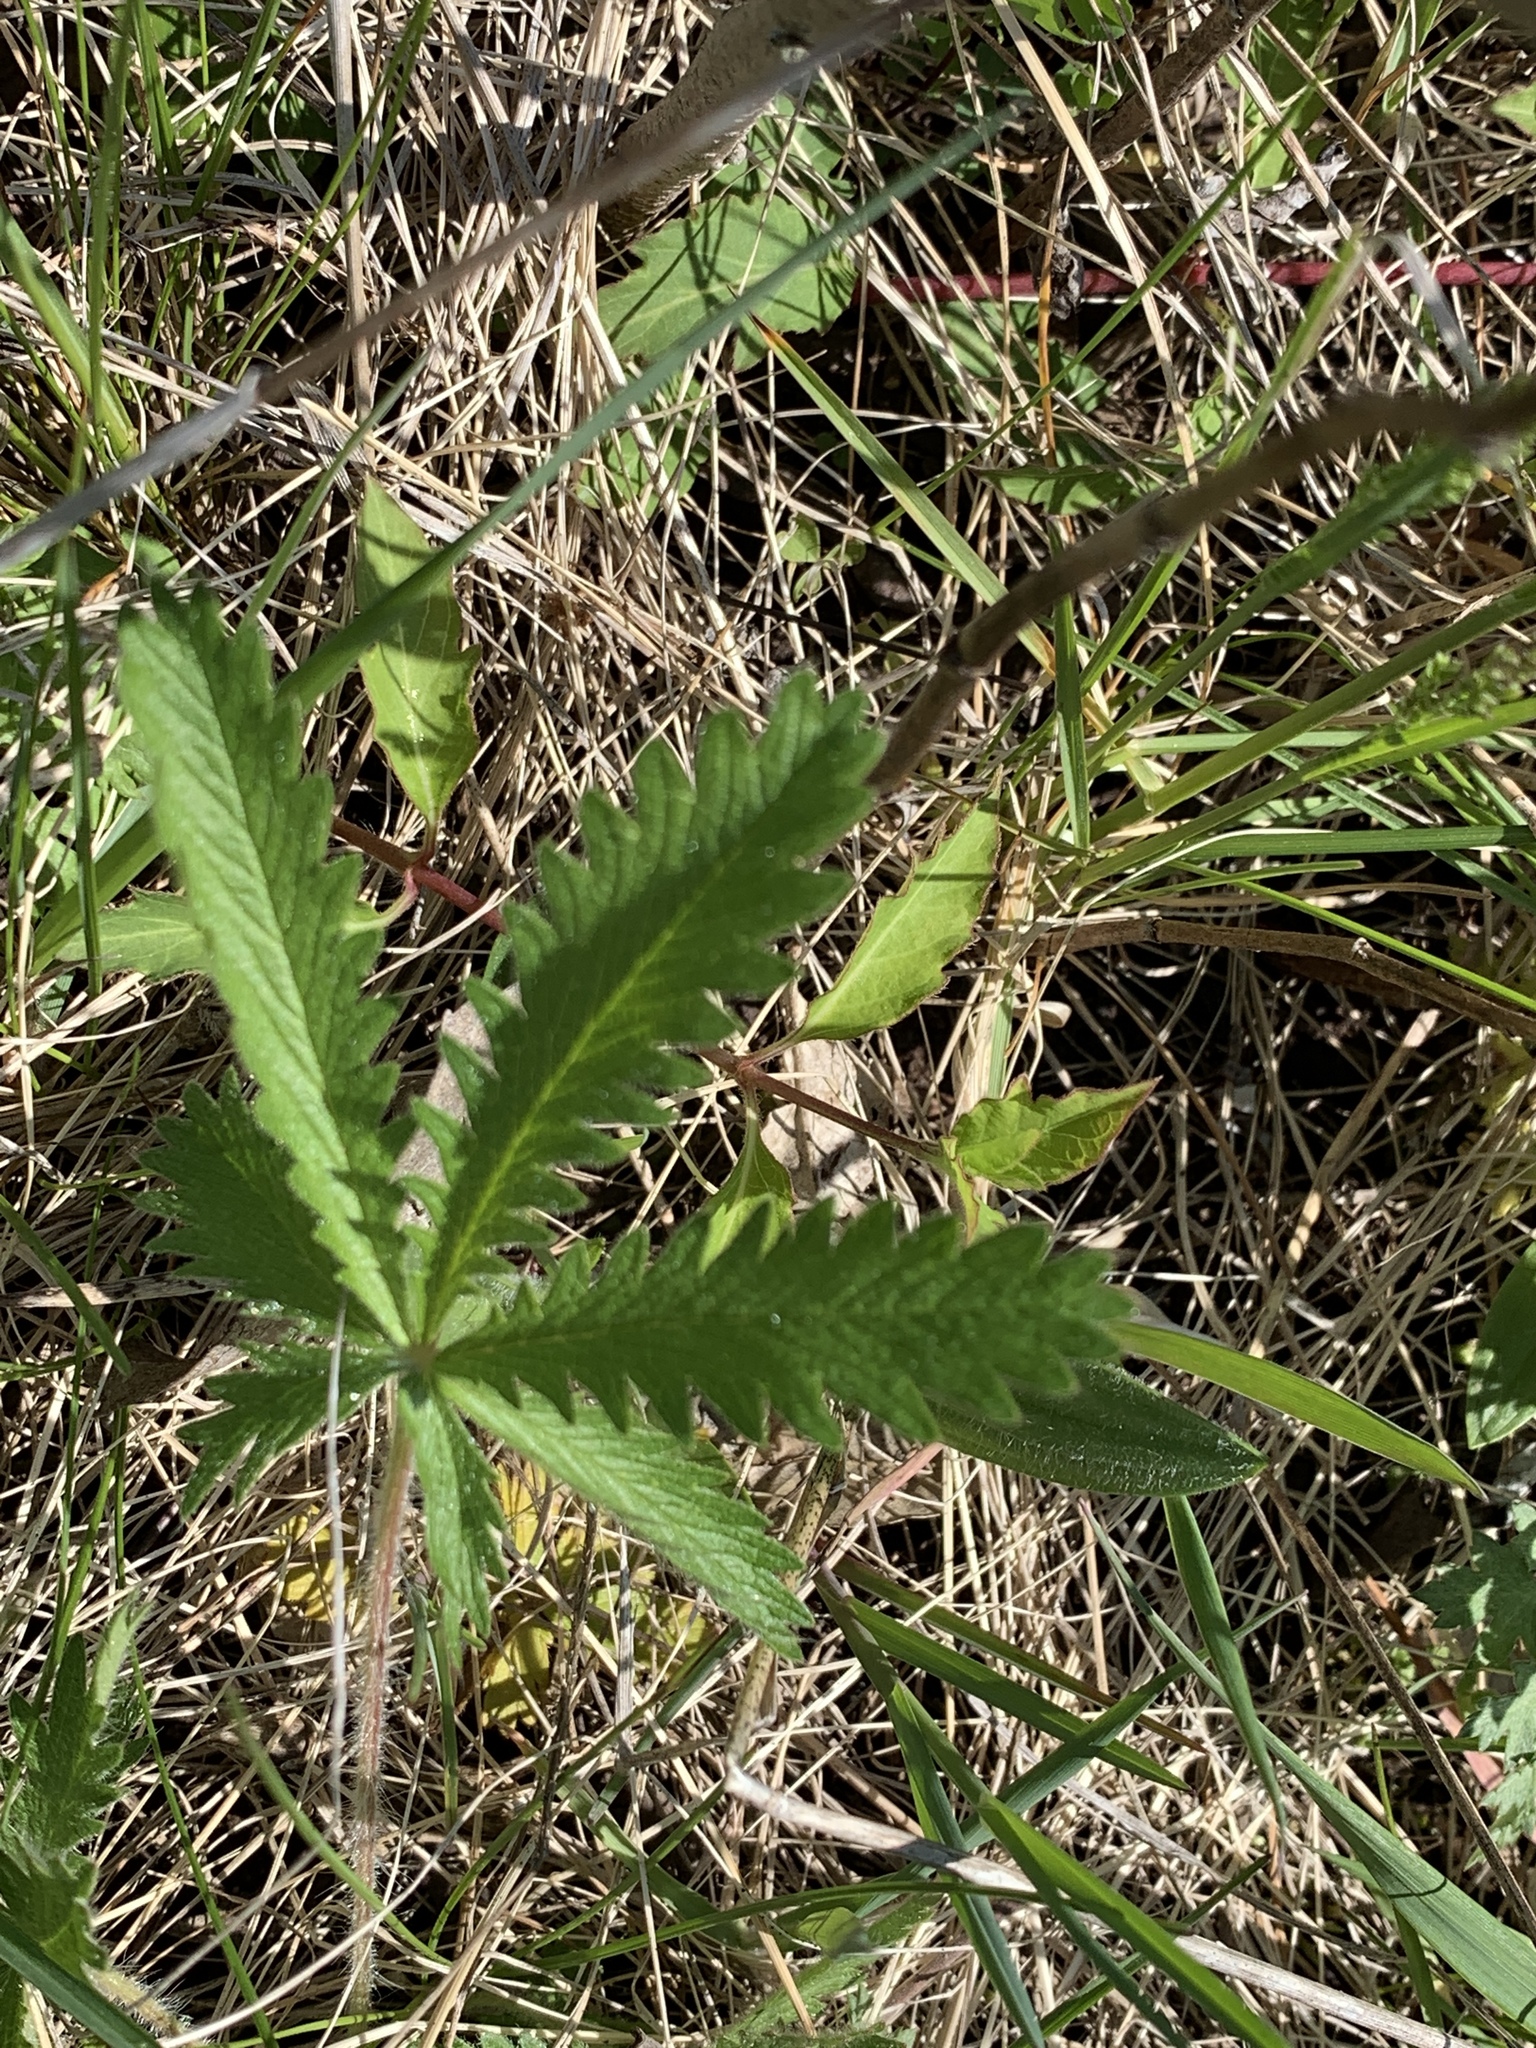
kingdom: Plantae
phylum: Tracheophyta
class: Magnoliopsida
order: Rosales
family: Rosaceae
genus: Potentilla
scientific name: Potentilla recta
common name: Sulphur cinquefoil
